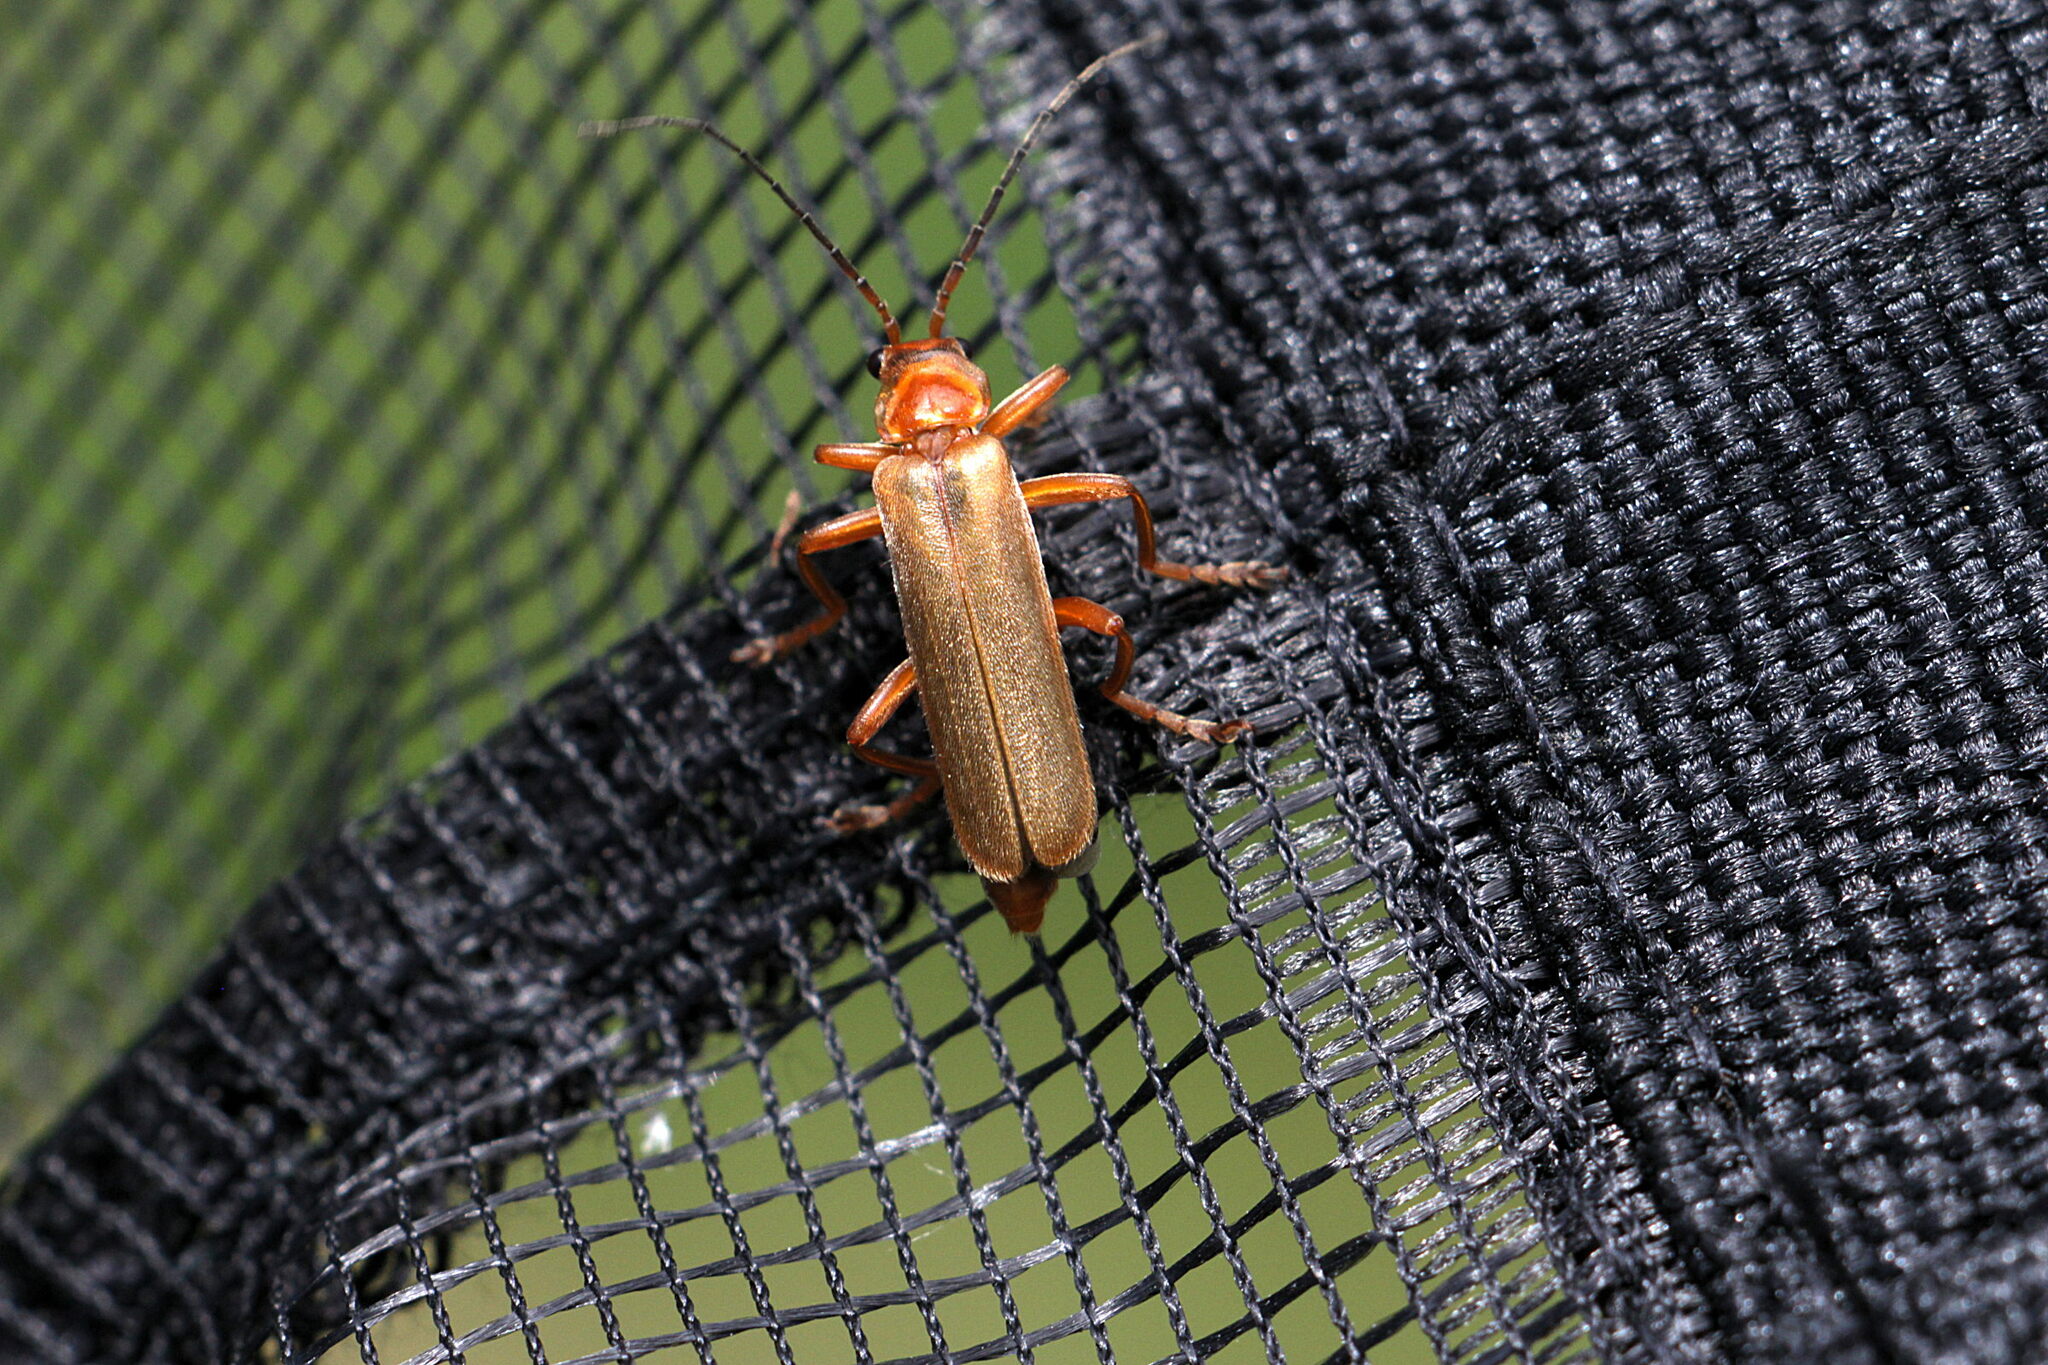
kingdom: Animalia
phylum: Arthropoda
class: Insecta
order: Coleoptera
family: Cantharidae
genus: Cantharis
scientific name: Cantharis rufa
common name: Red-spotted soldier beetle
